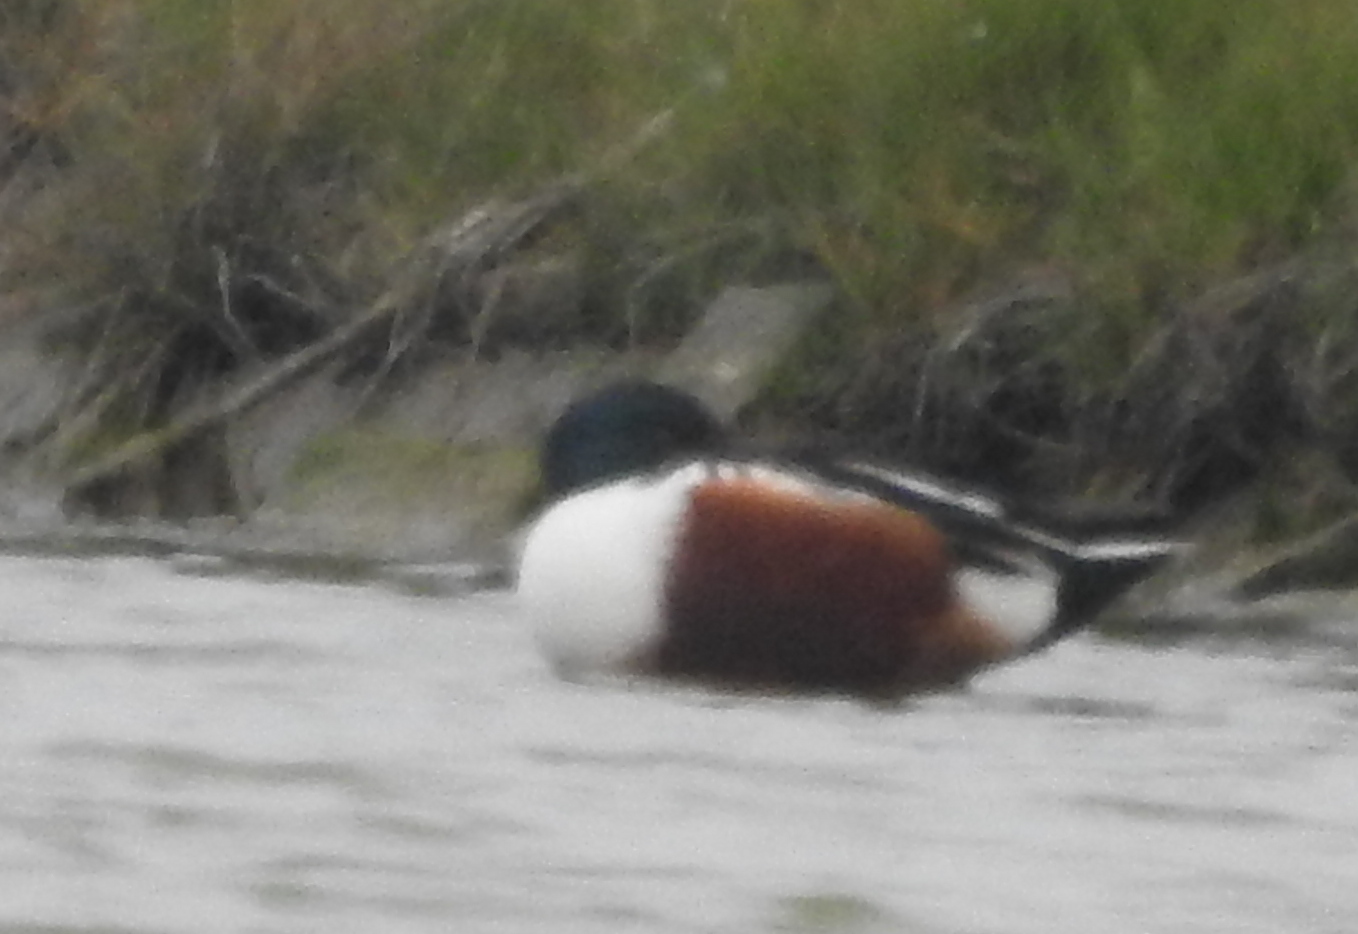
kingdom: Animalia
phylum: Chordata
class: Aves
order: Anseriformes
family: Anatidae
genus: Spatula
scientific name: Spatula clypeata
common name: Northern shoveler
